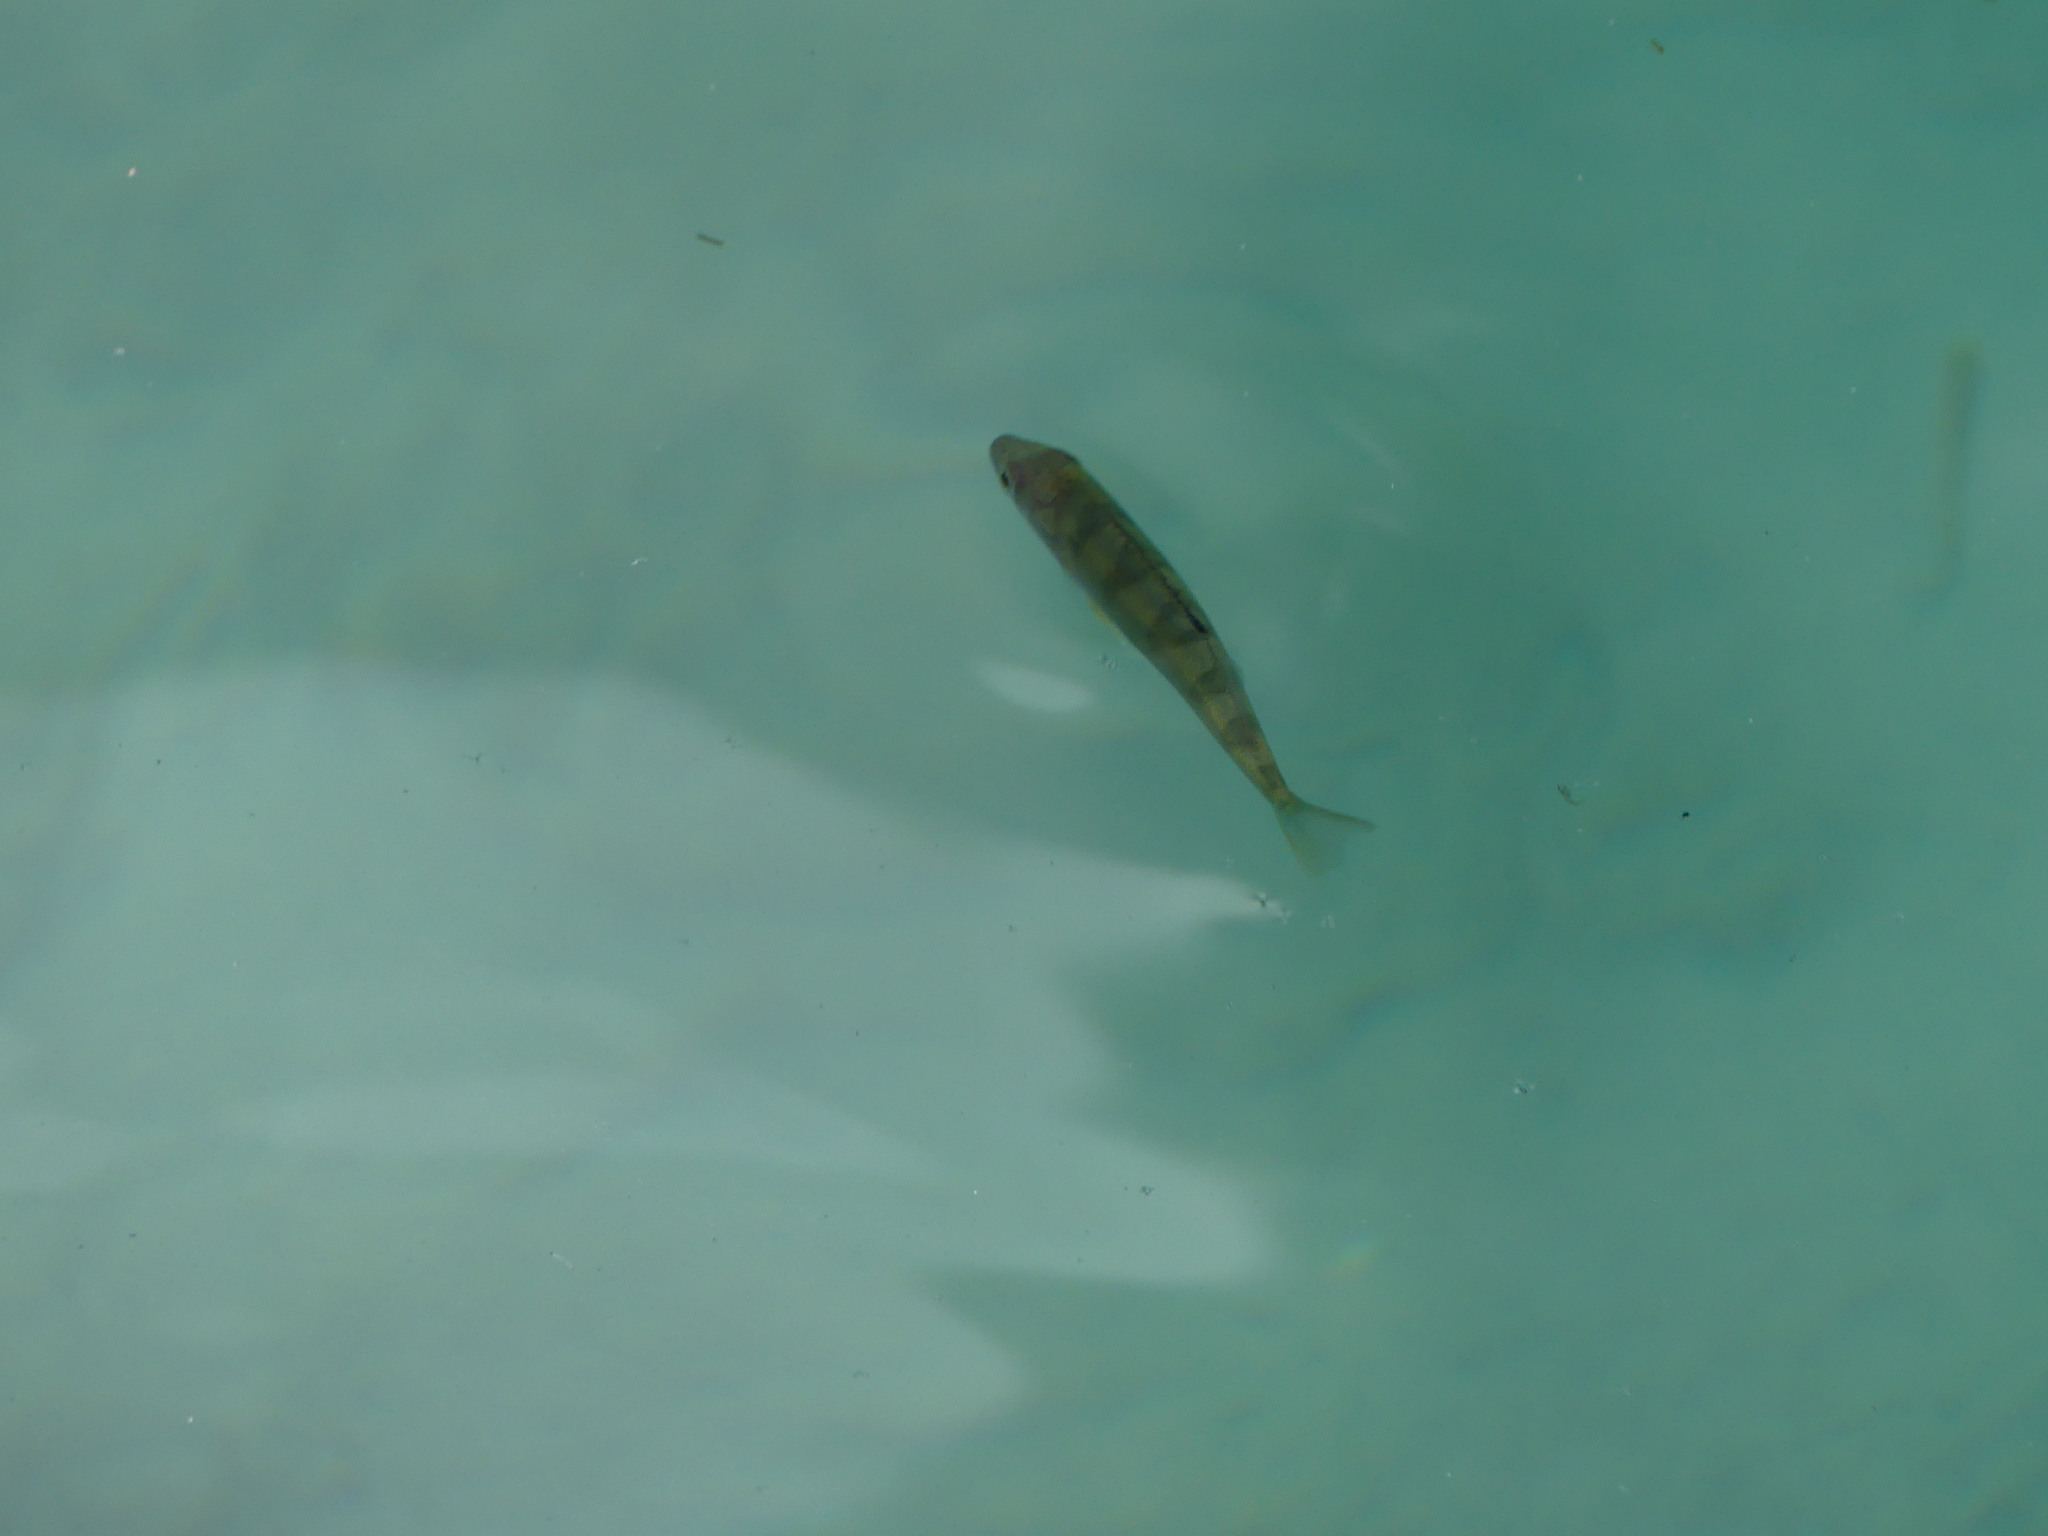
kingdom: Animalia
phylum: Chordata
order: Perciformes
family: Percidae
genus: Perca
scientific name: Perca fluviatilis
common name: Perch
